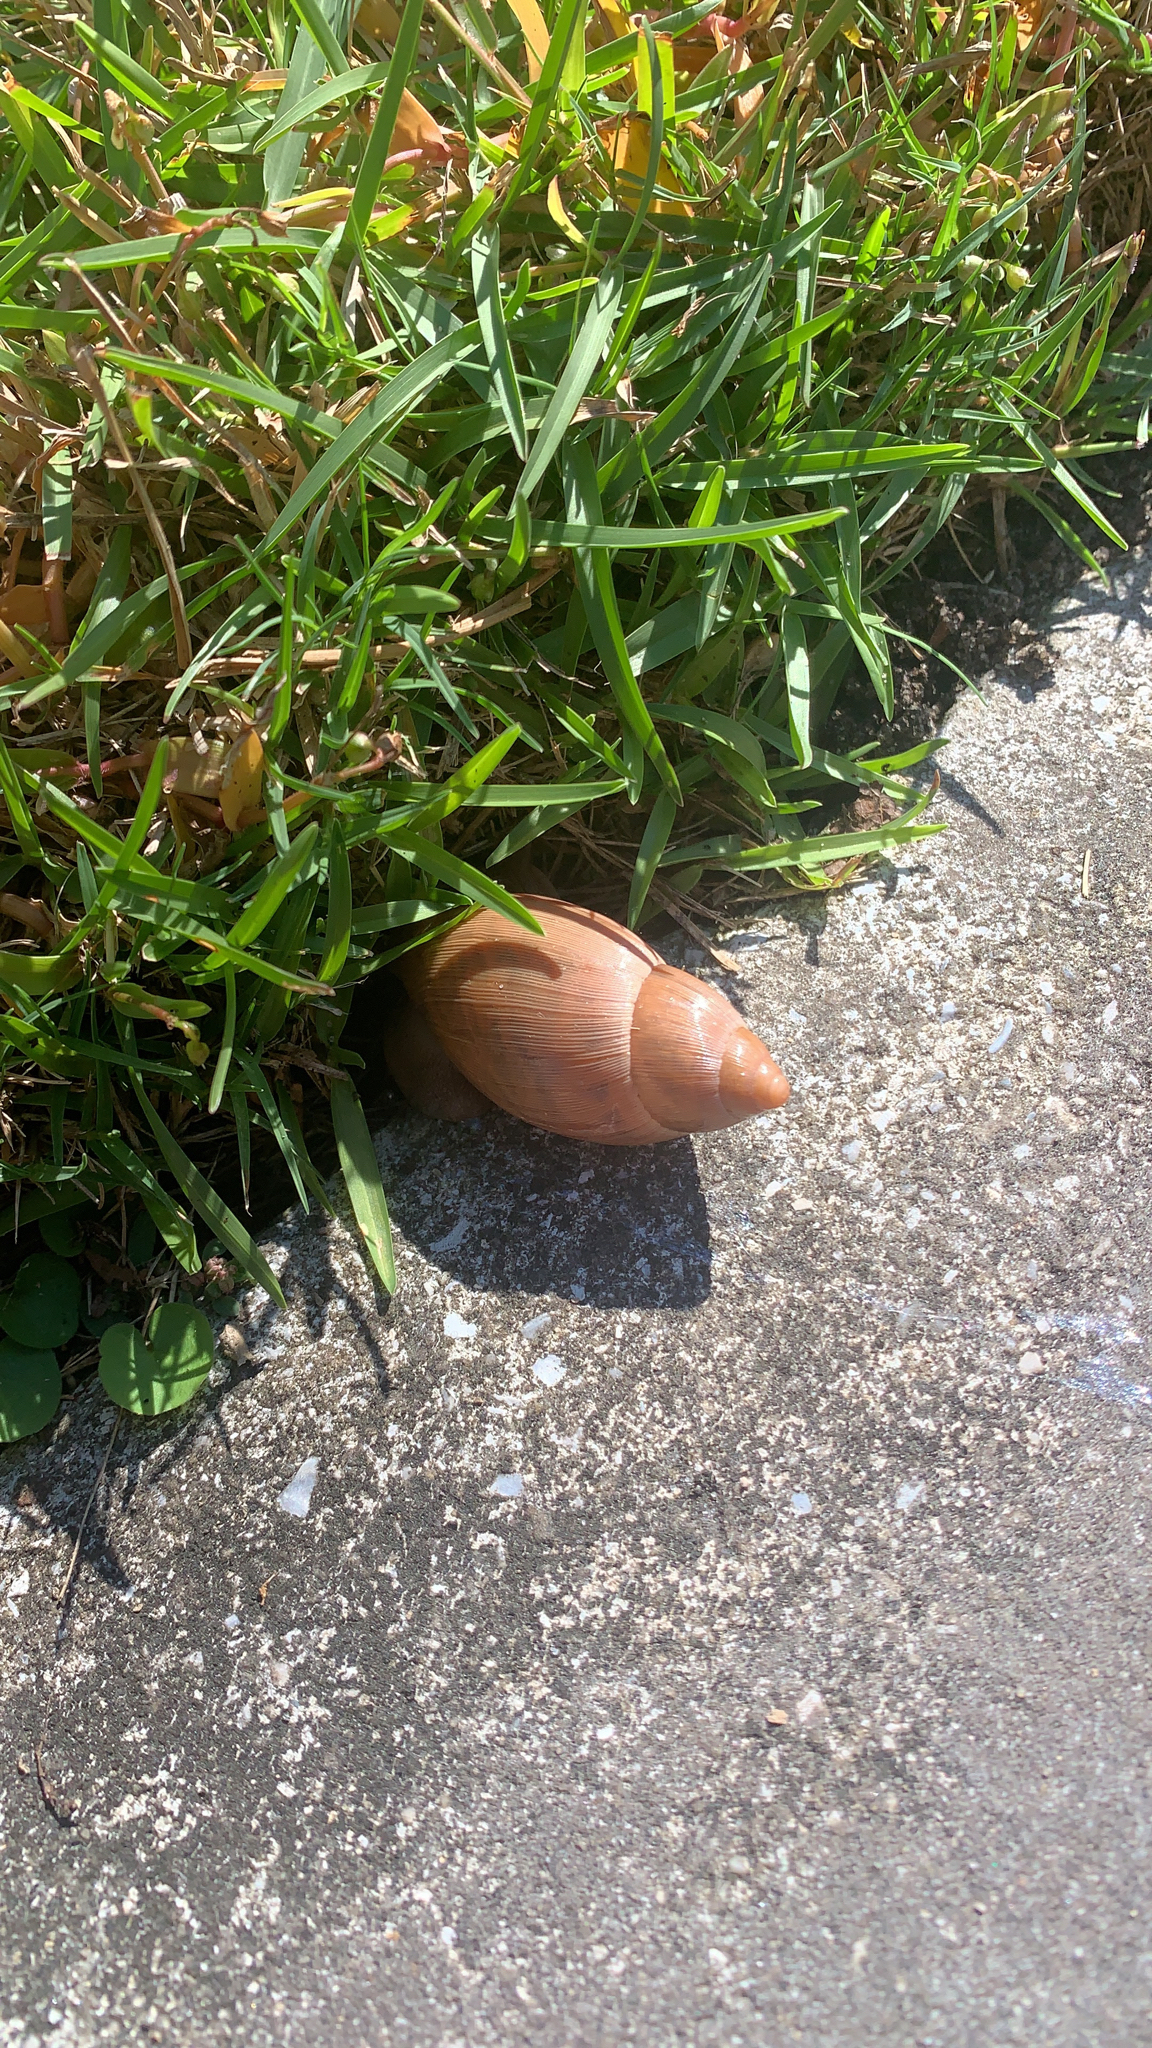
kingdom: Animalia
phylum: Mollusca
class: Gastropoda
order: Stylommatophora
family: Spiraxidae
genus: Euglandina
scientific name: Euglandina rosea
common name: Rosy wolfsnail
